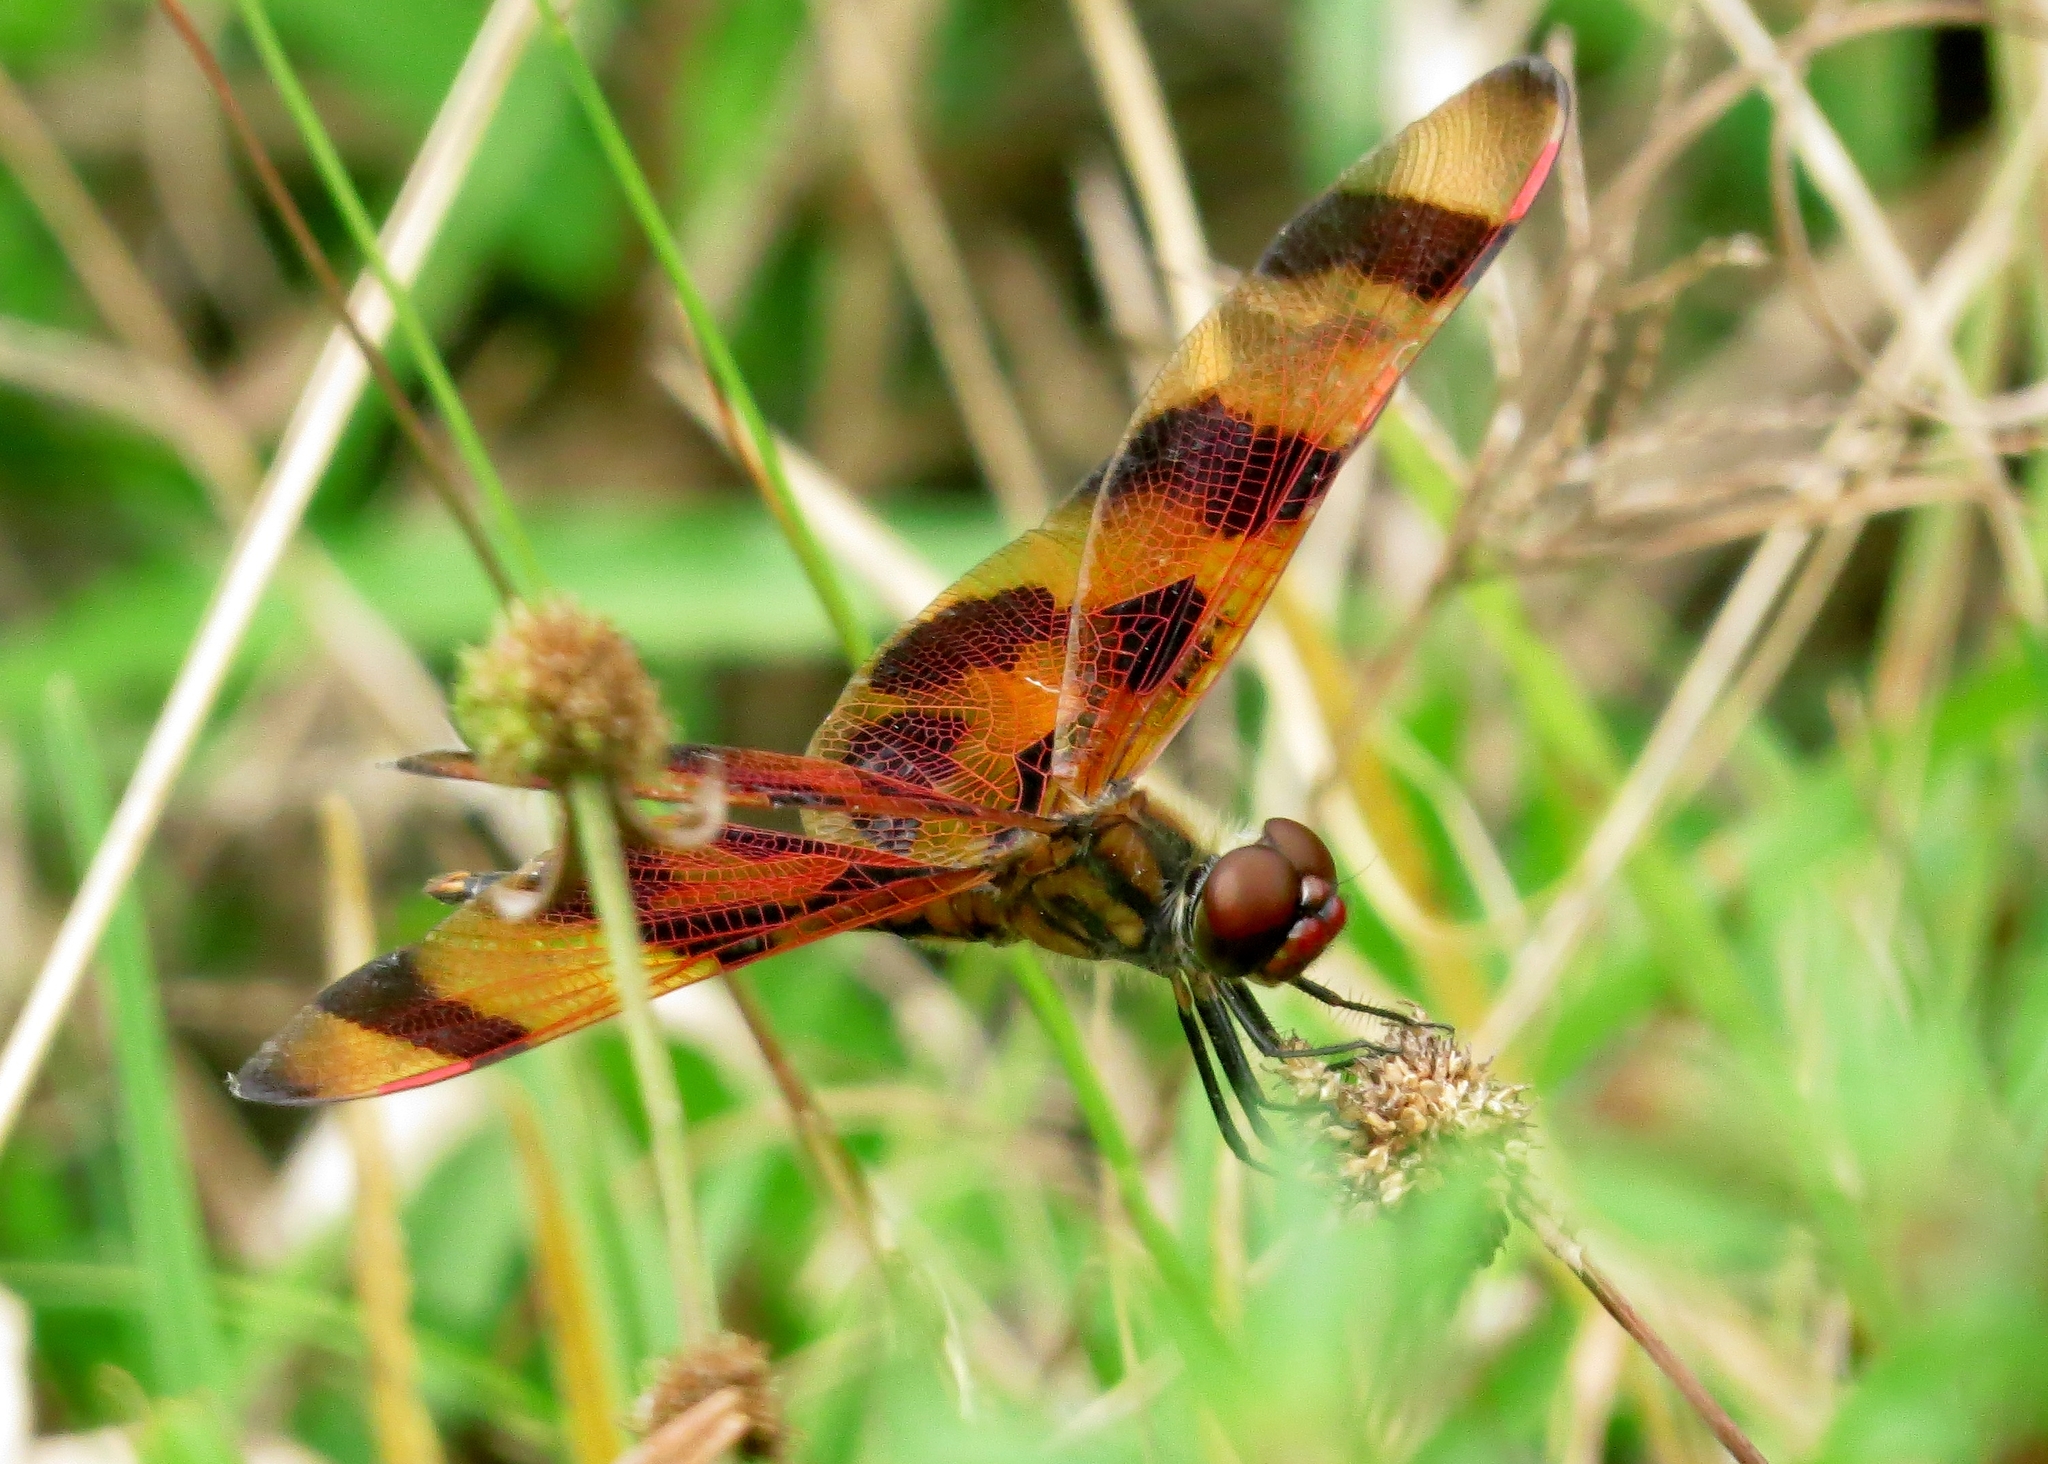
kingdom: Animalia
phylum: Arthropoda
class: Insecta
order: Odonata
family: Libellulidae
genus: Celithemis
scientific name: Celithemis eponina
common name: Halloween pennant
